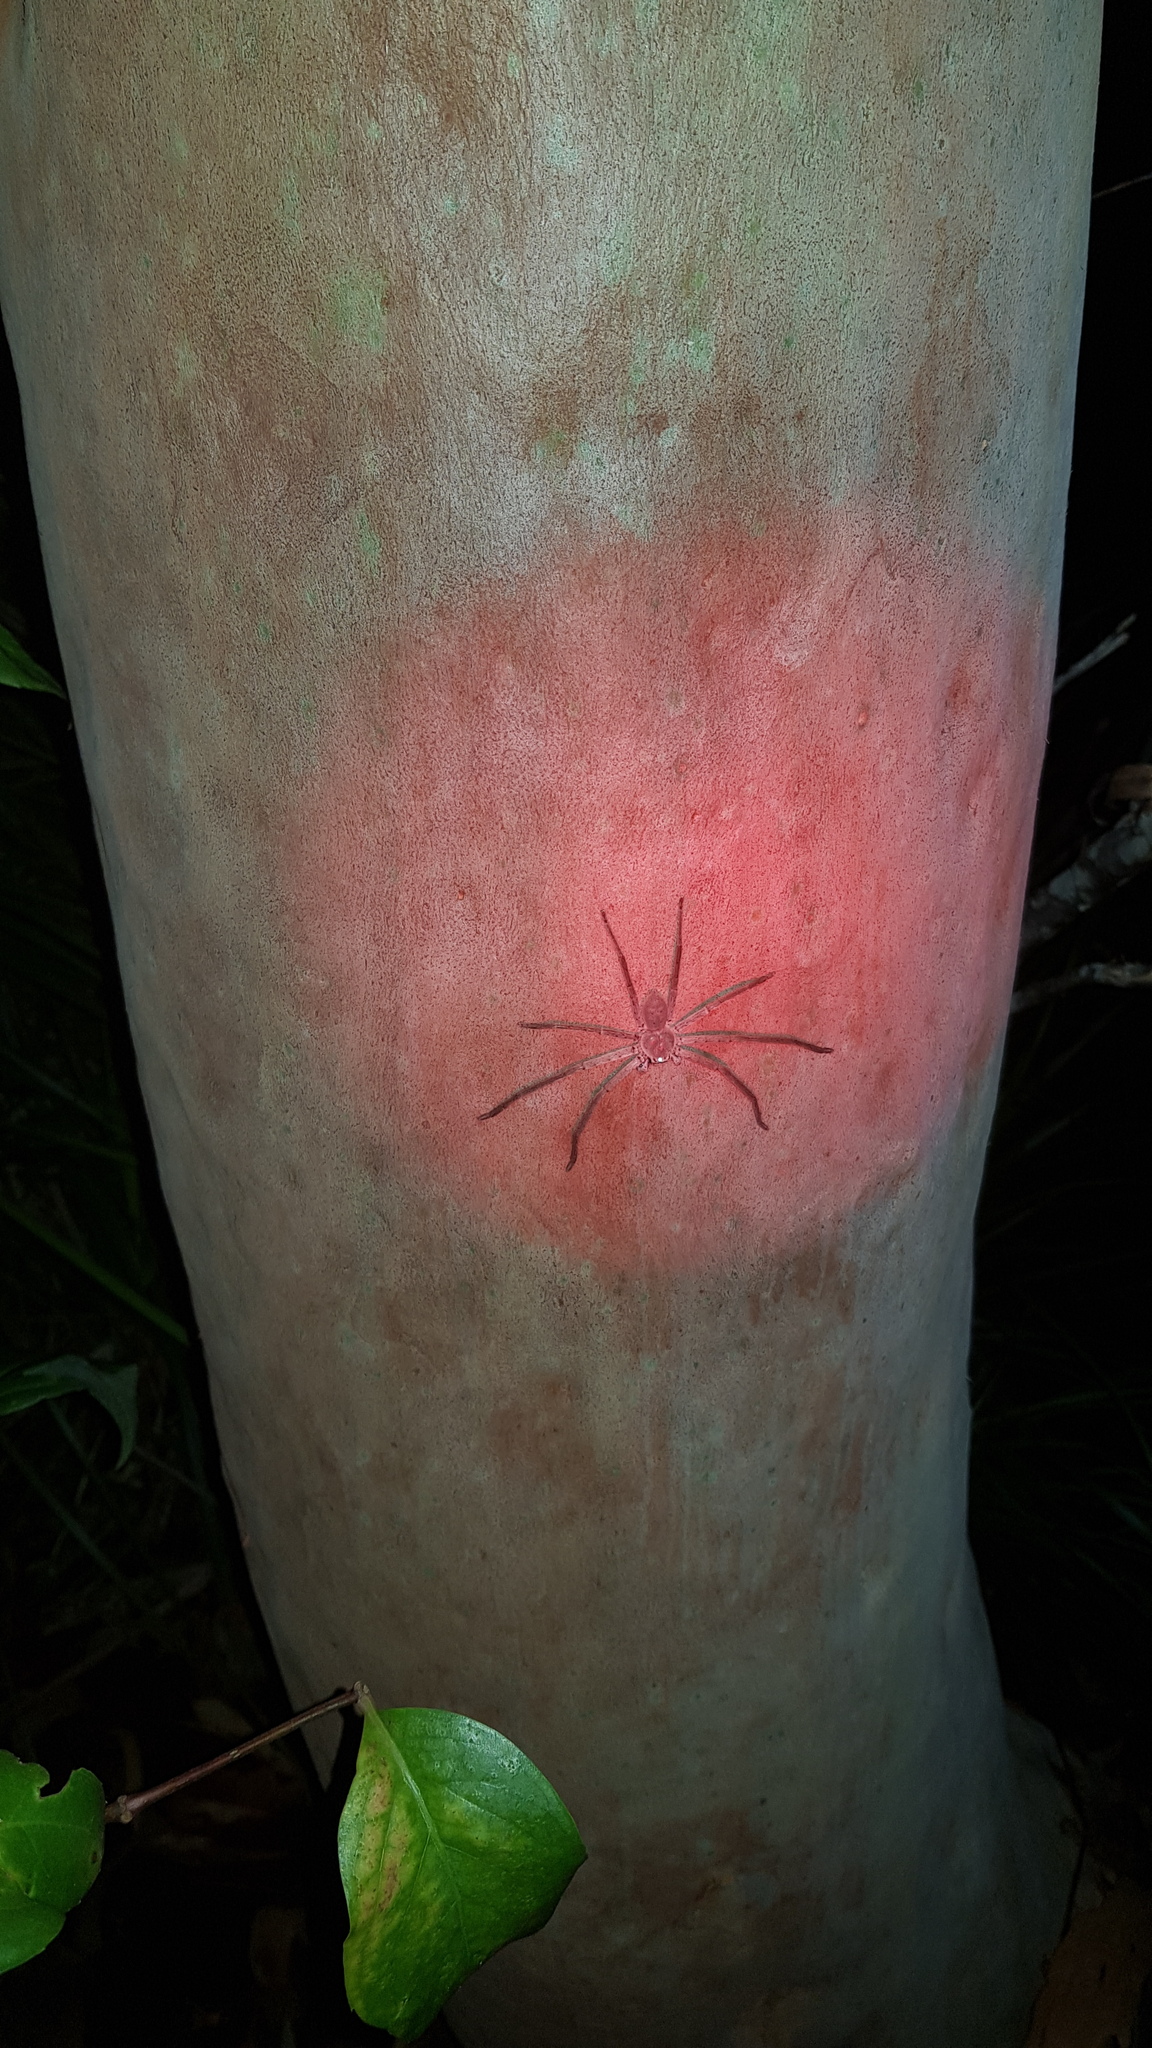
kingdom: Animalia
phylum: Arthropoda
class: Arachnida
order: Araneae
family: Sparassidae
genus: Isopeda
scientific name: Isopeda villosa
